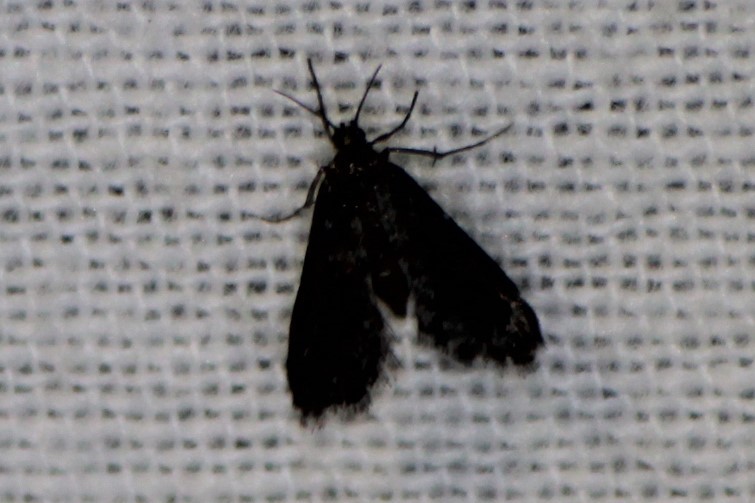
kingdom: Animalia
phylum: Arthropoda
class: Insecta
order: Lepidoptera
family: Crambidae
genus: Elophila
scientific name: Elophila tinealis
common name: Black duckweed moth
